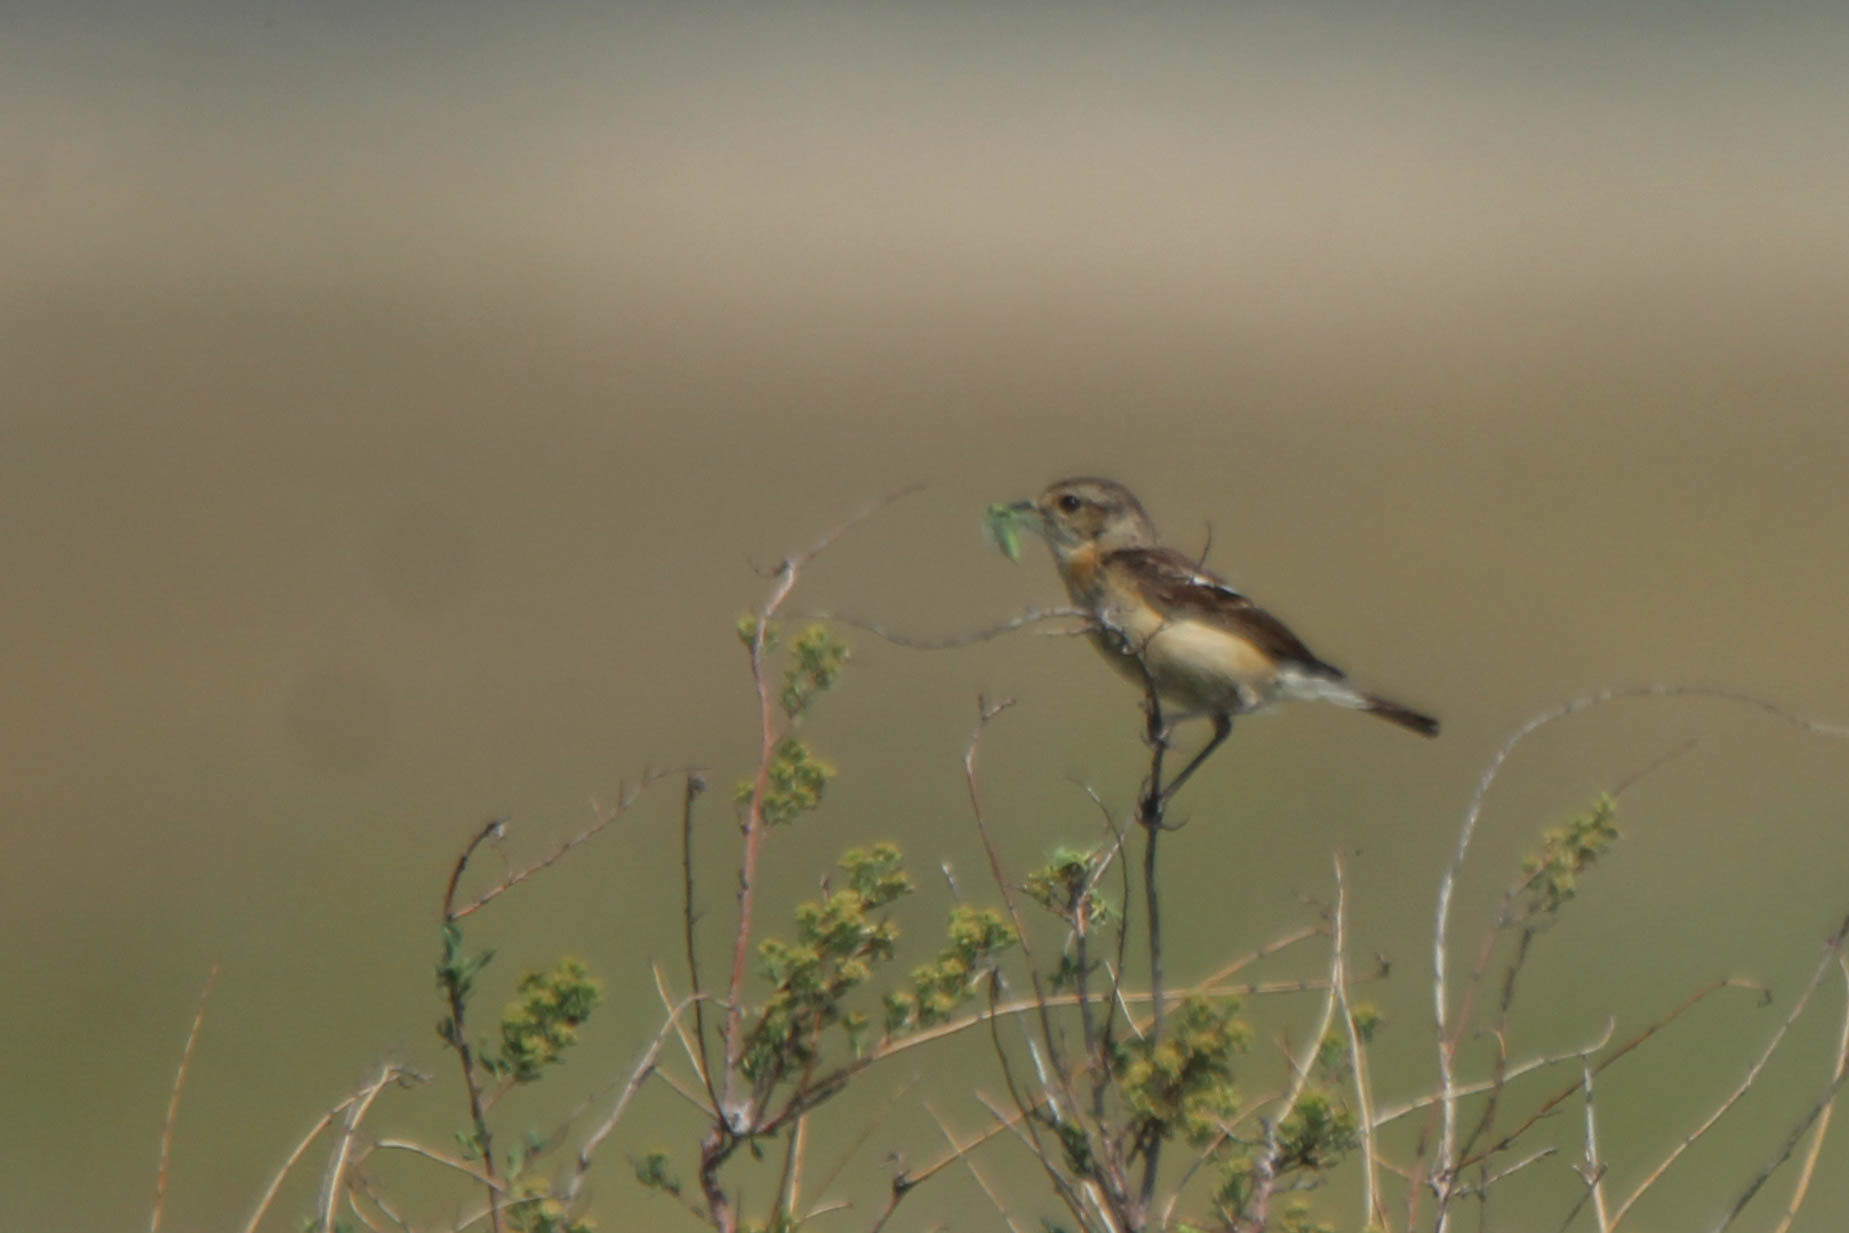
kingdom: Animalia
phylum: Chordata
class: Aves
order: Passeriformes
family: Muscicapidae
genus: Saxicola
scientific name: Saxicola maurus
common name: Siberian stonechat
